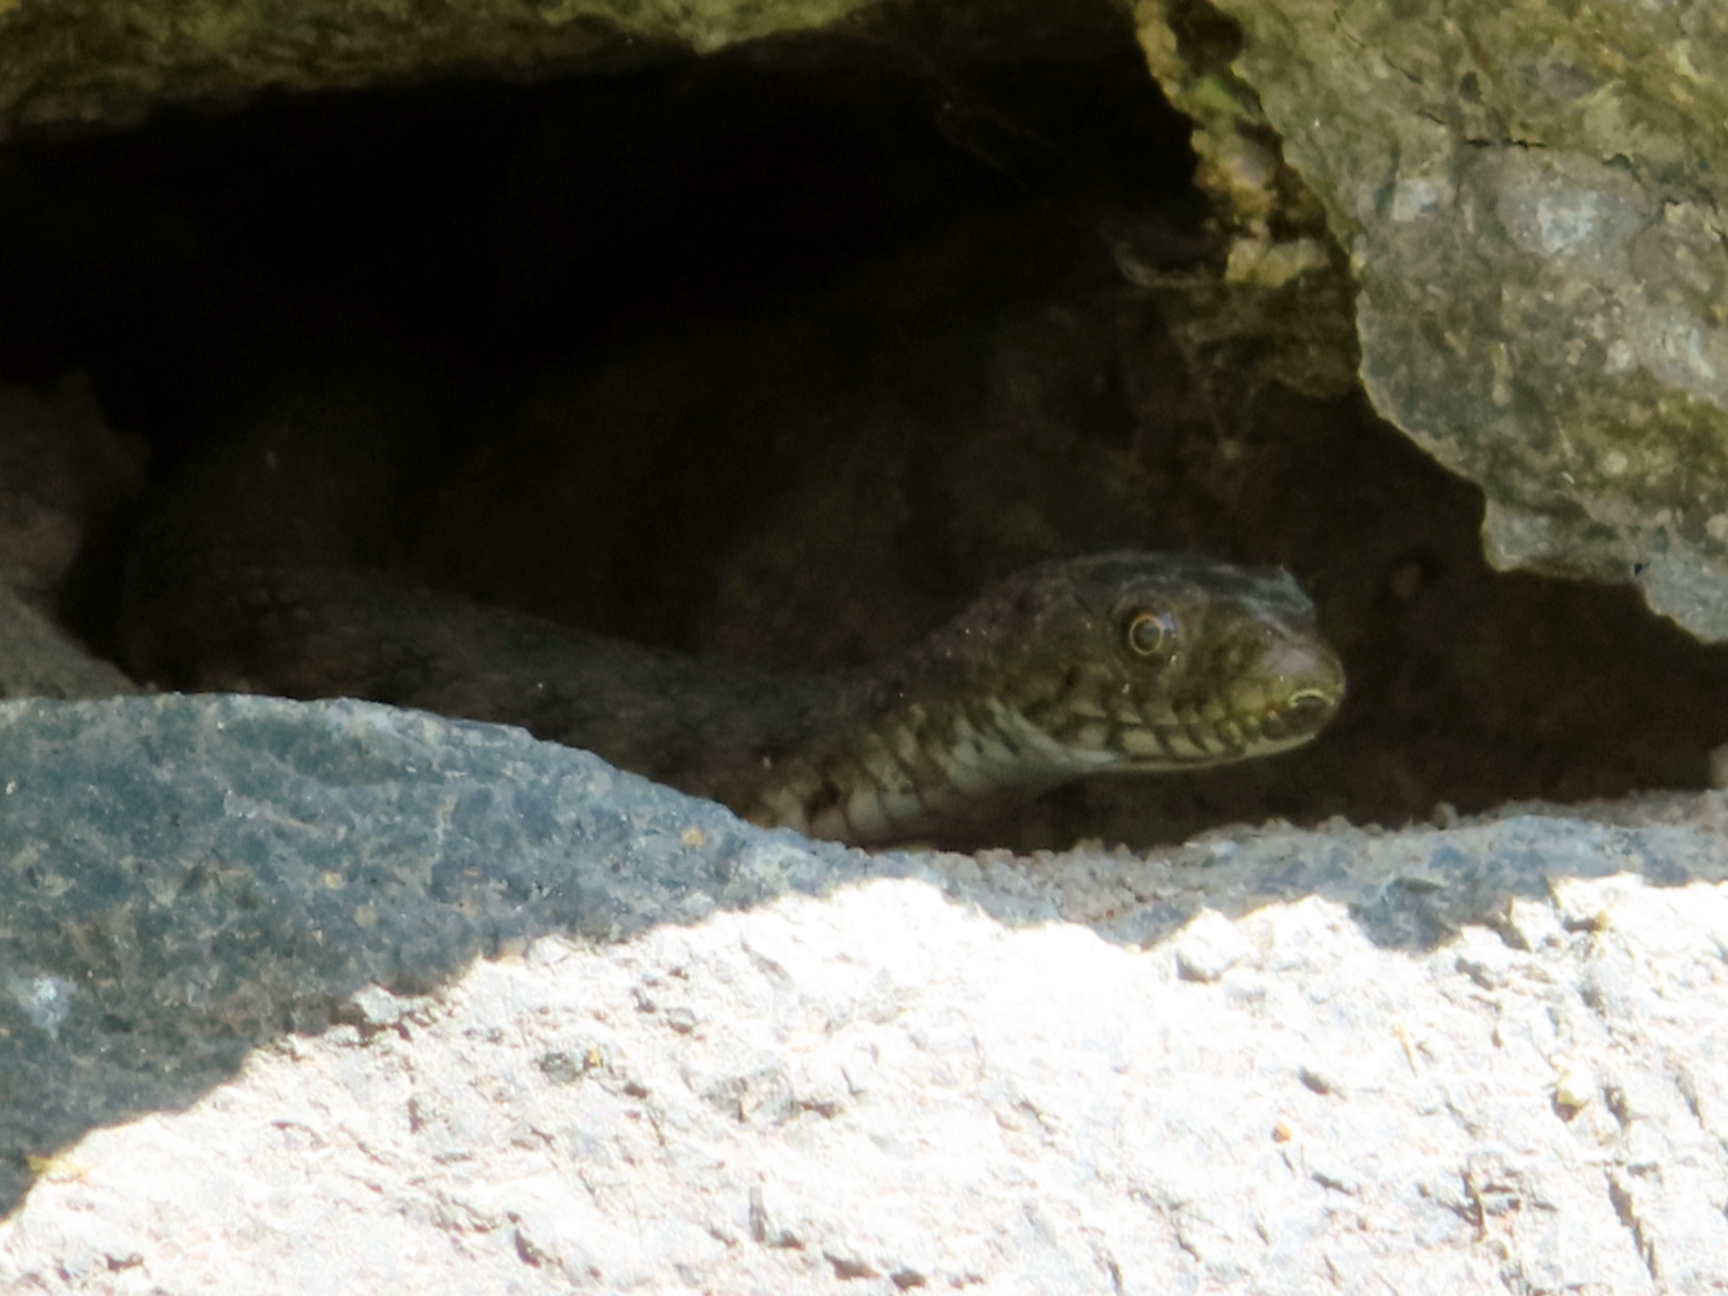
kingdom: Animalia
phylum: Chordata
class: Squamata
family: Colubridae
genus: Natrix
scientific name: Natrix tessellata
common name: Dice snake
